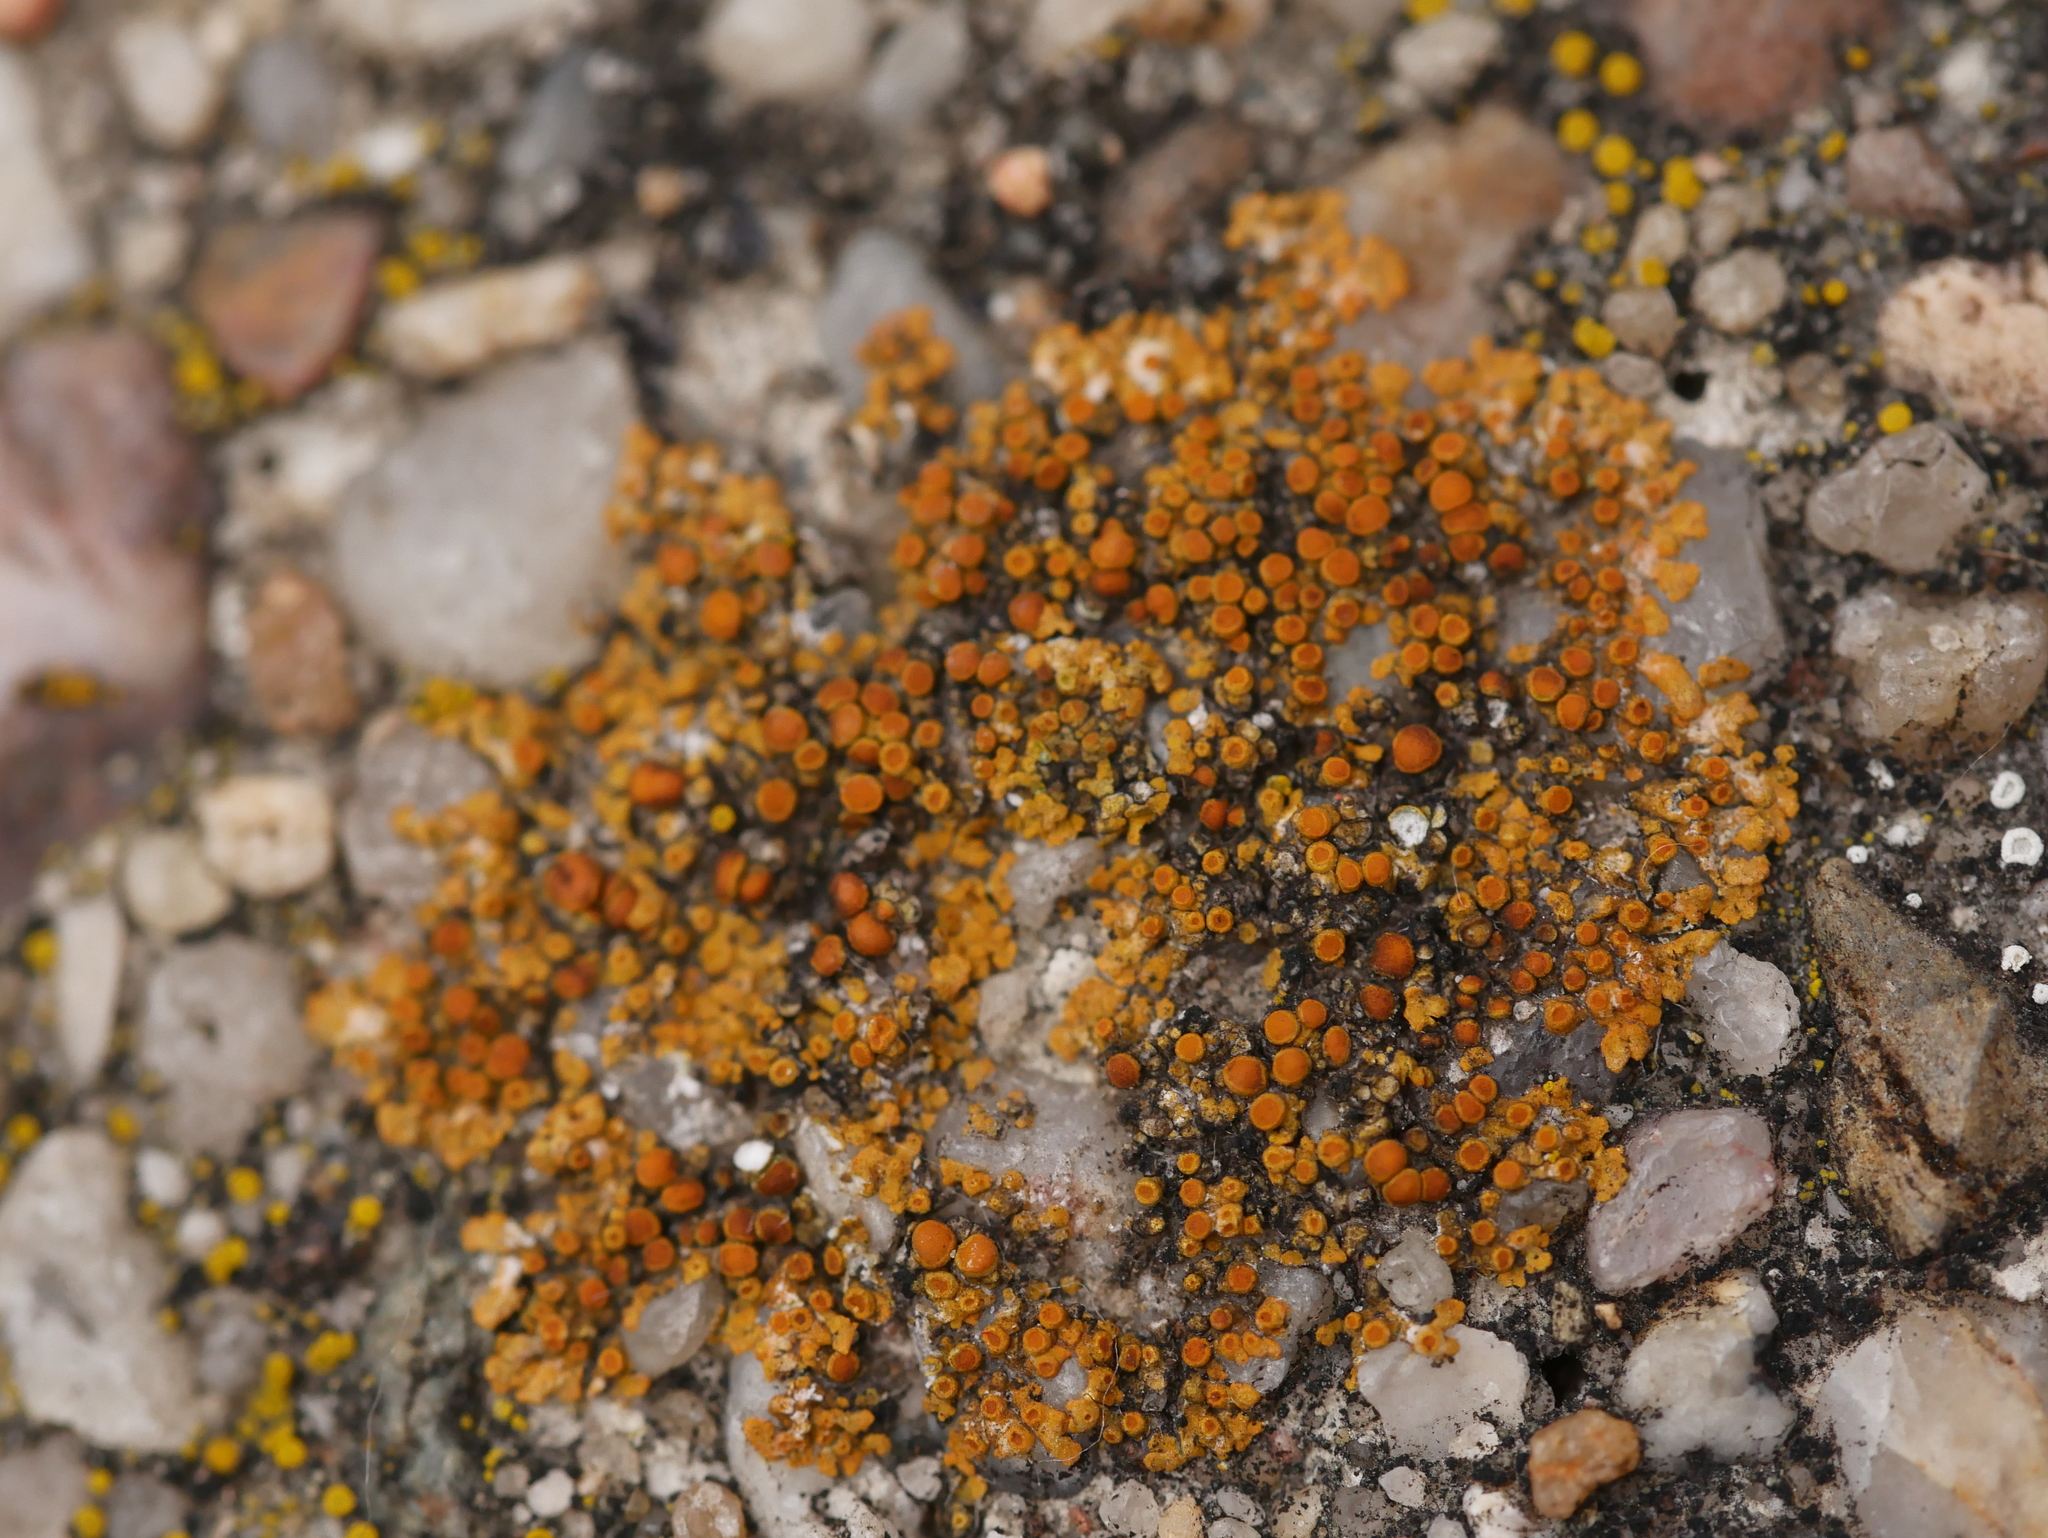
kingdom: Fungi
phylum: Ascomycota
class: Lecanoromycetes
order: Teloschistales
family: Teloschistaceae
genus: Calogaya
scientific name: Calogaya saxicola
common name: Rock jewel lichen
